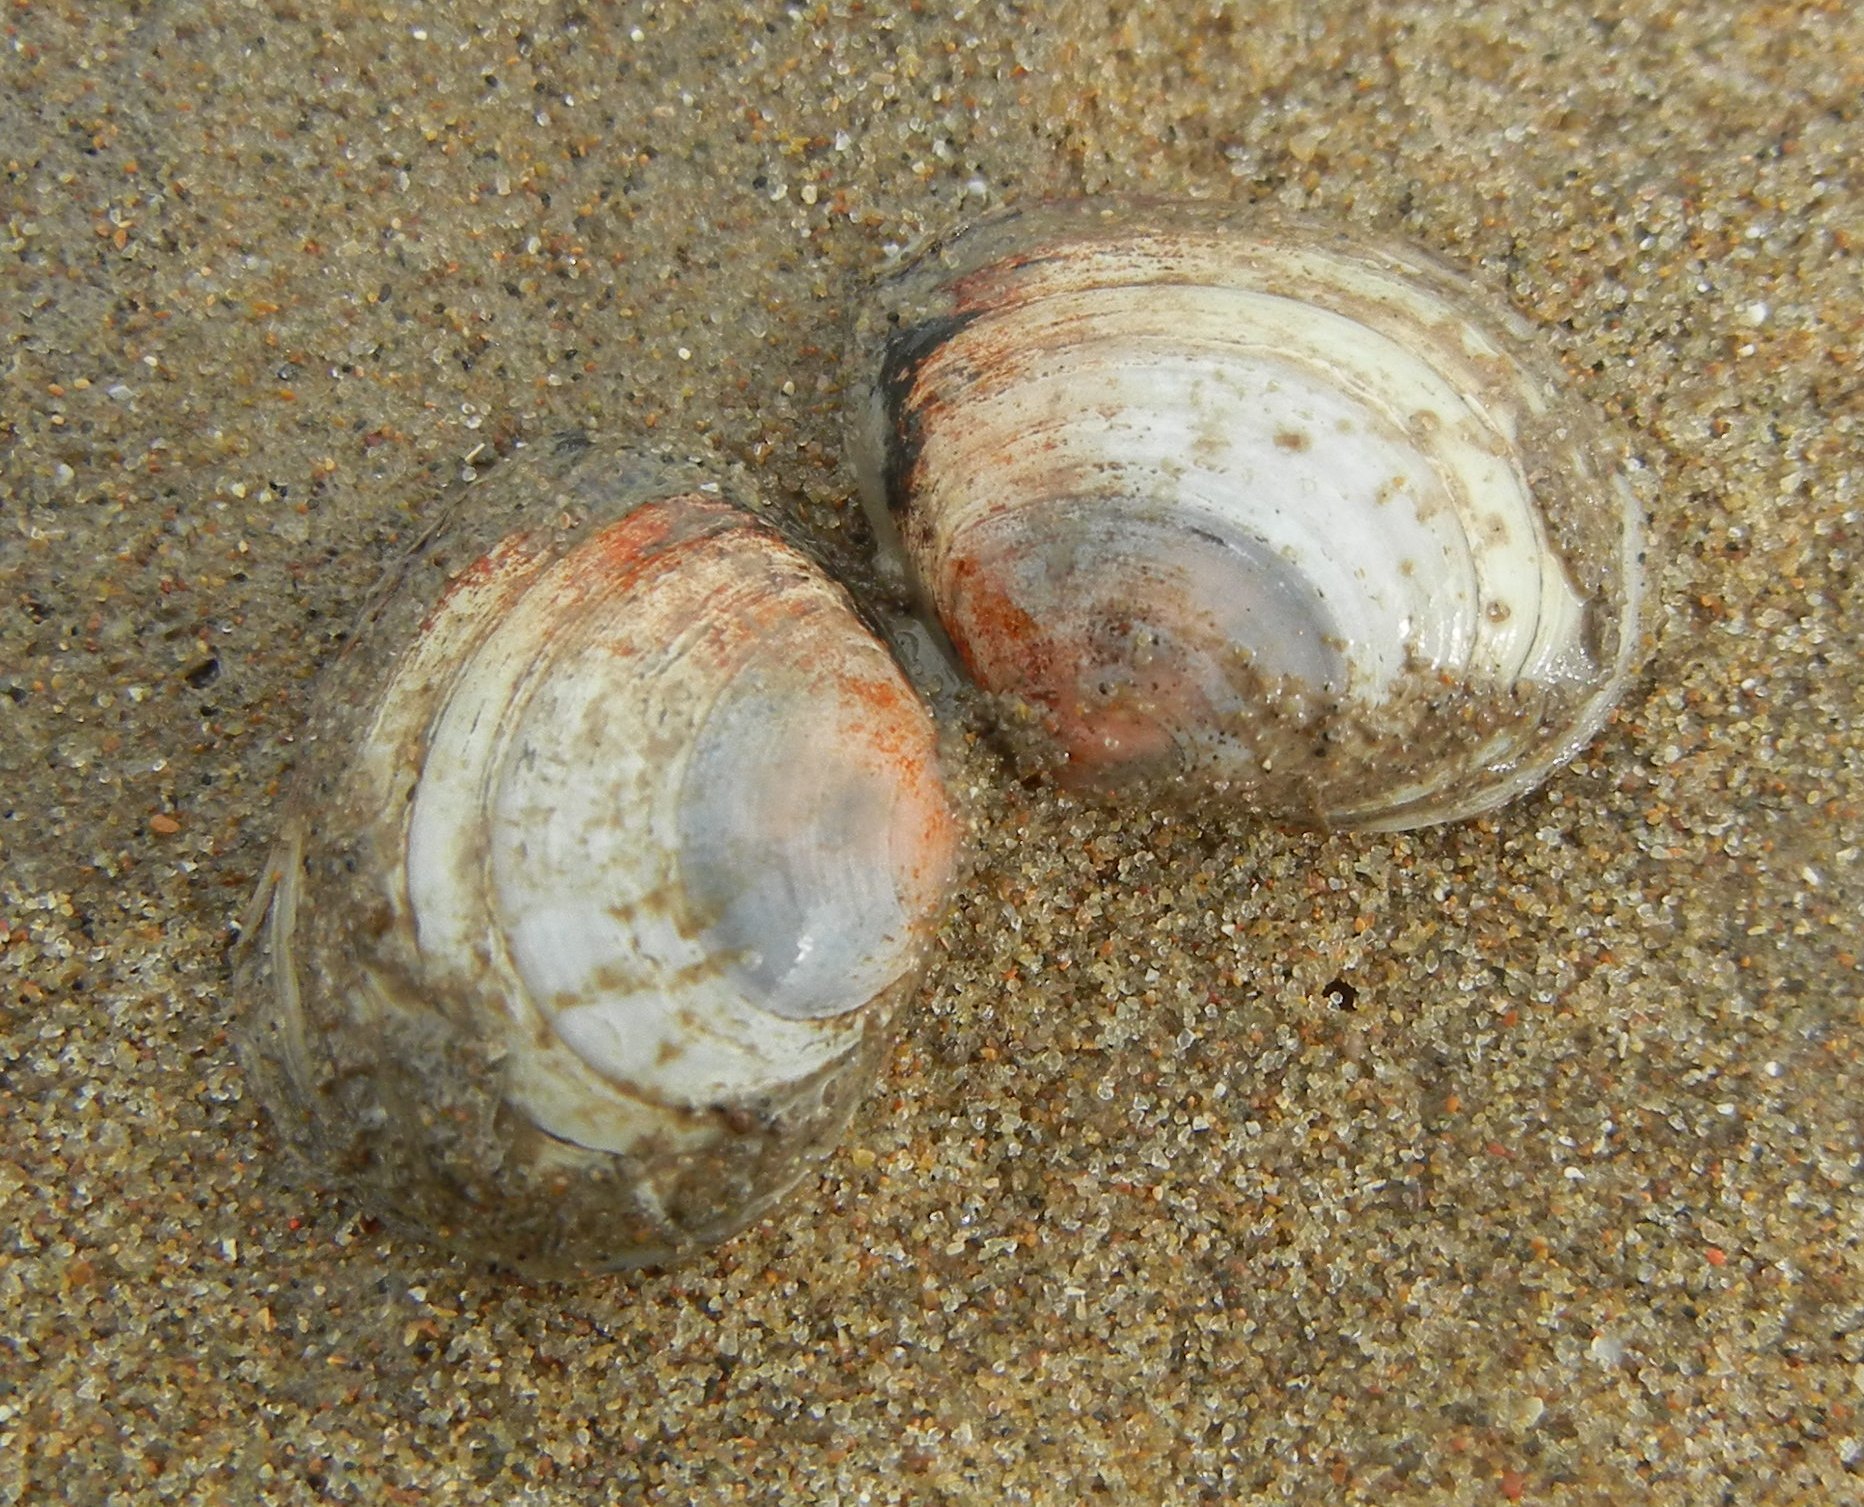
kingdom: Animalia
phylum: Mollusca
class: Bivalvia
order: Cardiida
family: Tellinidae
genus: Macoma
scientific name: Macoma balthica
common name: Baltic tellin
